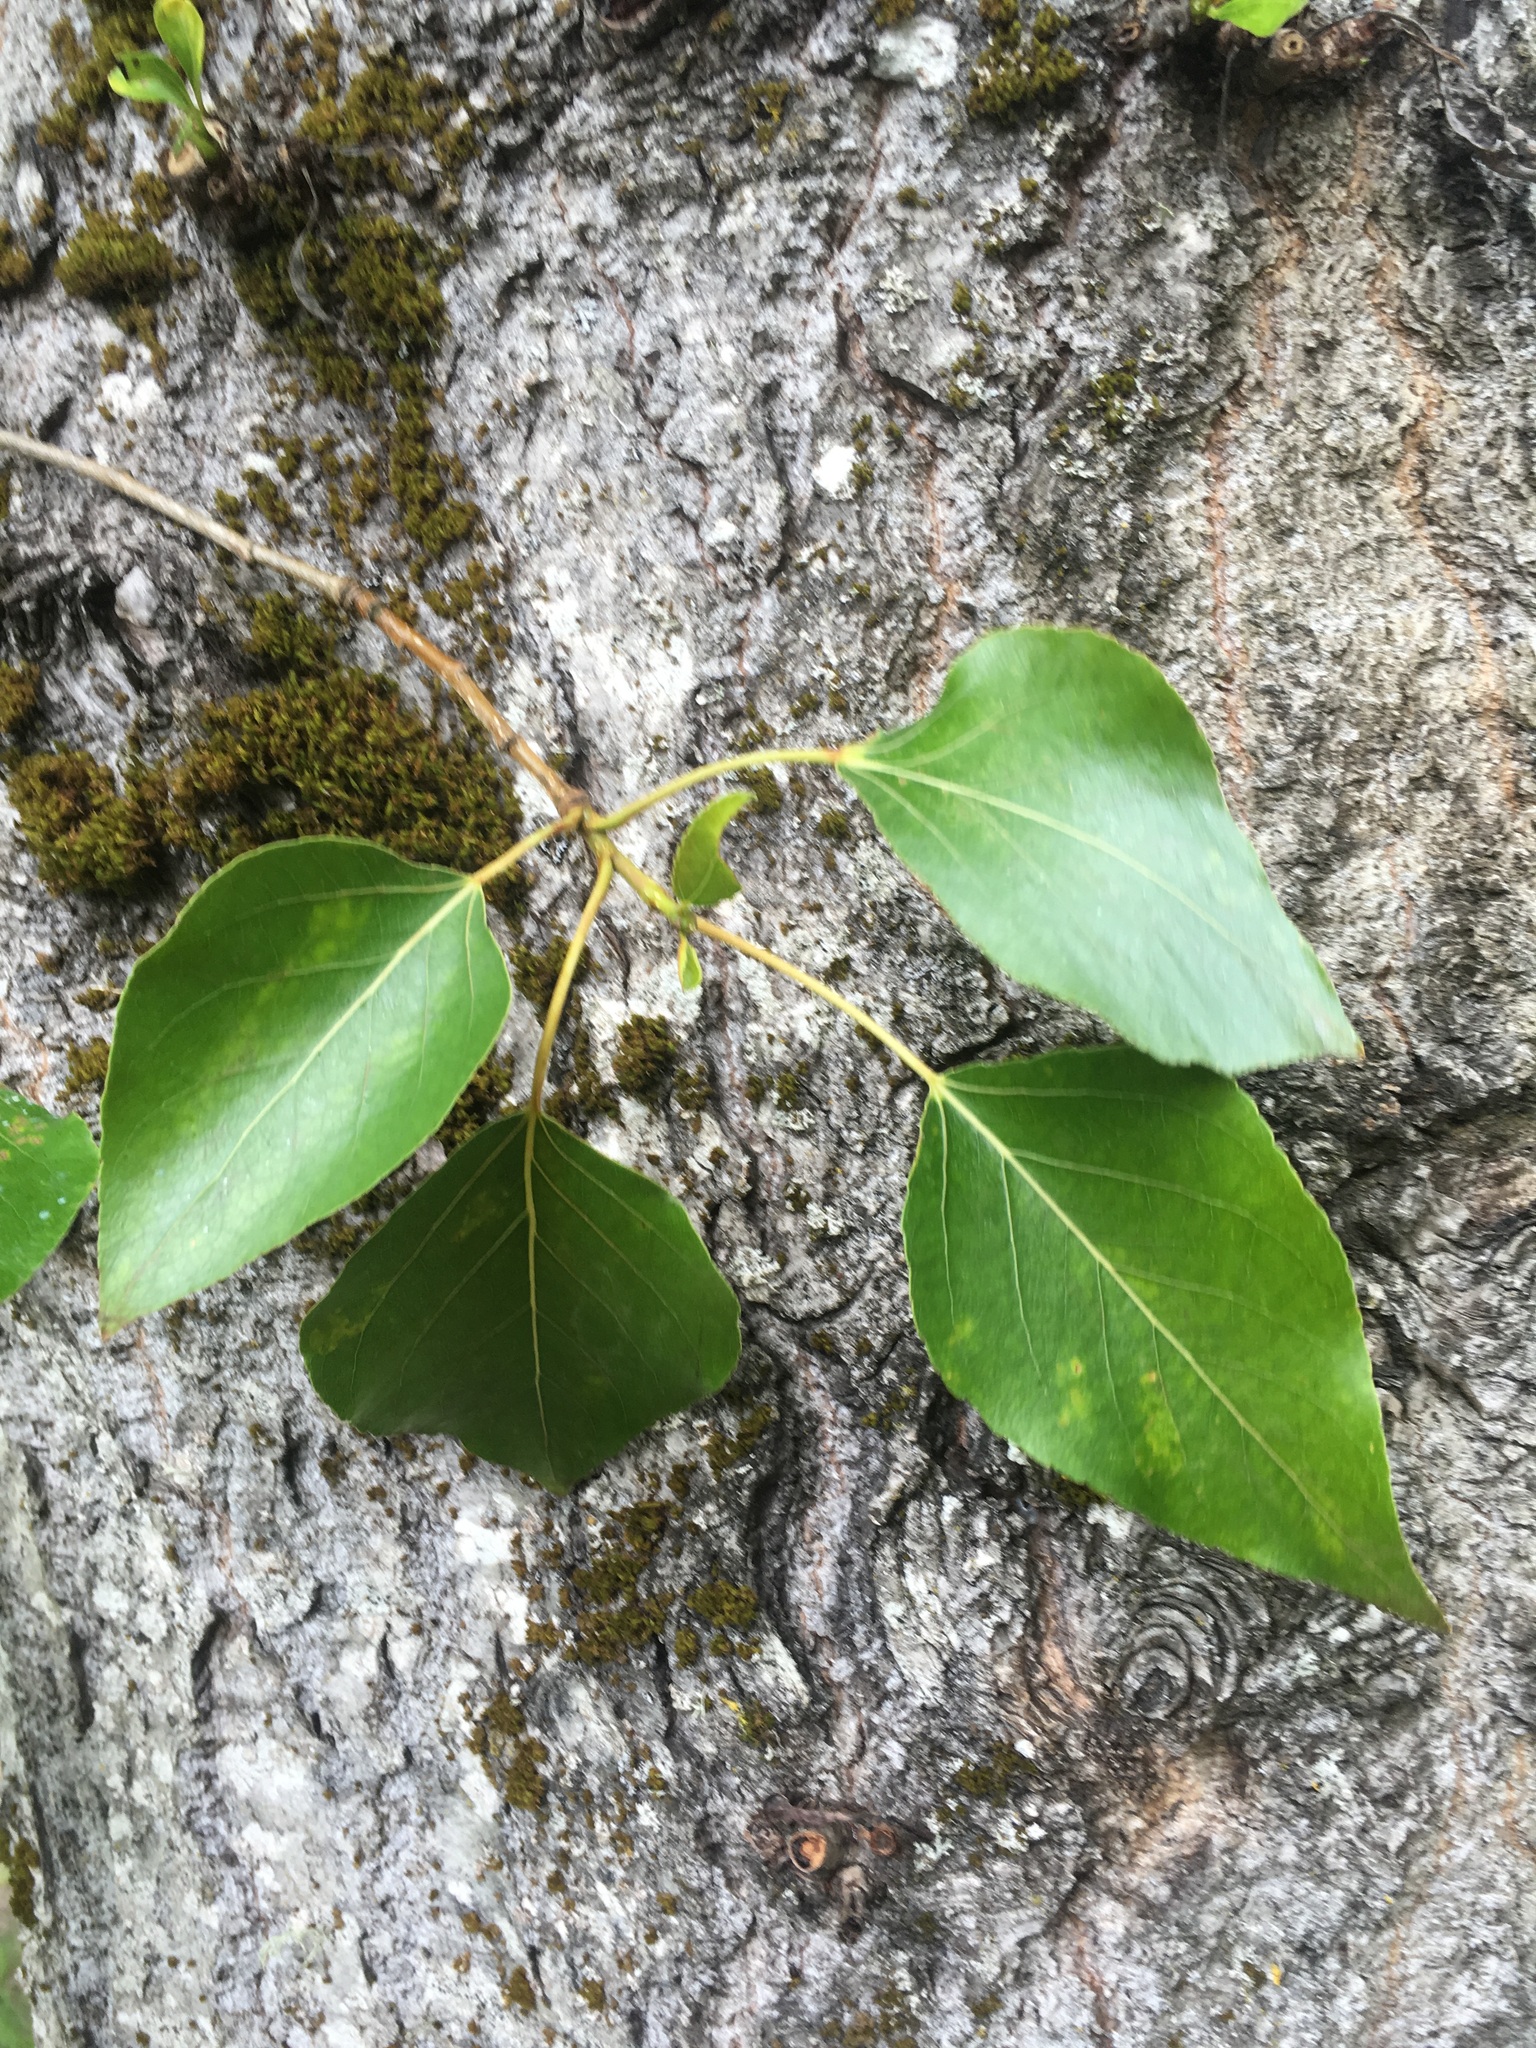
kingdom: Plantae
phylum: Tracheophyta
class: Magnoliopsida
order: Malpighiales
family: Salicaceae
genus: Populus
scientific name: Populus trichocarpa
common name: Black cottonwood
